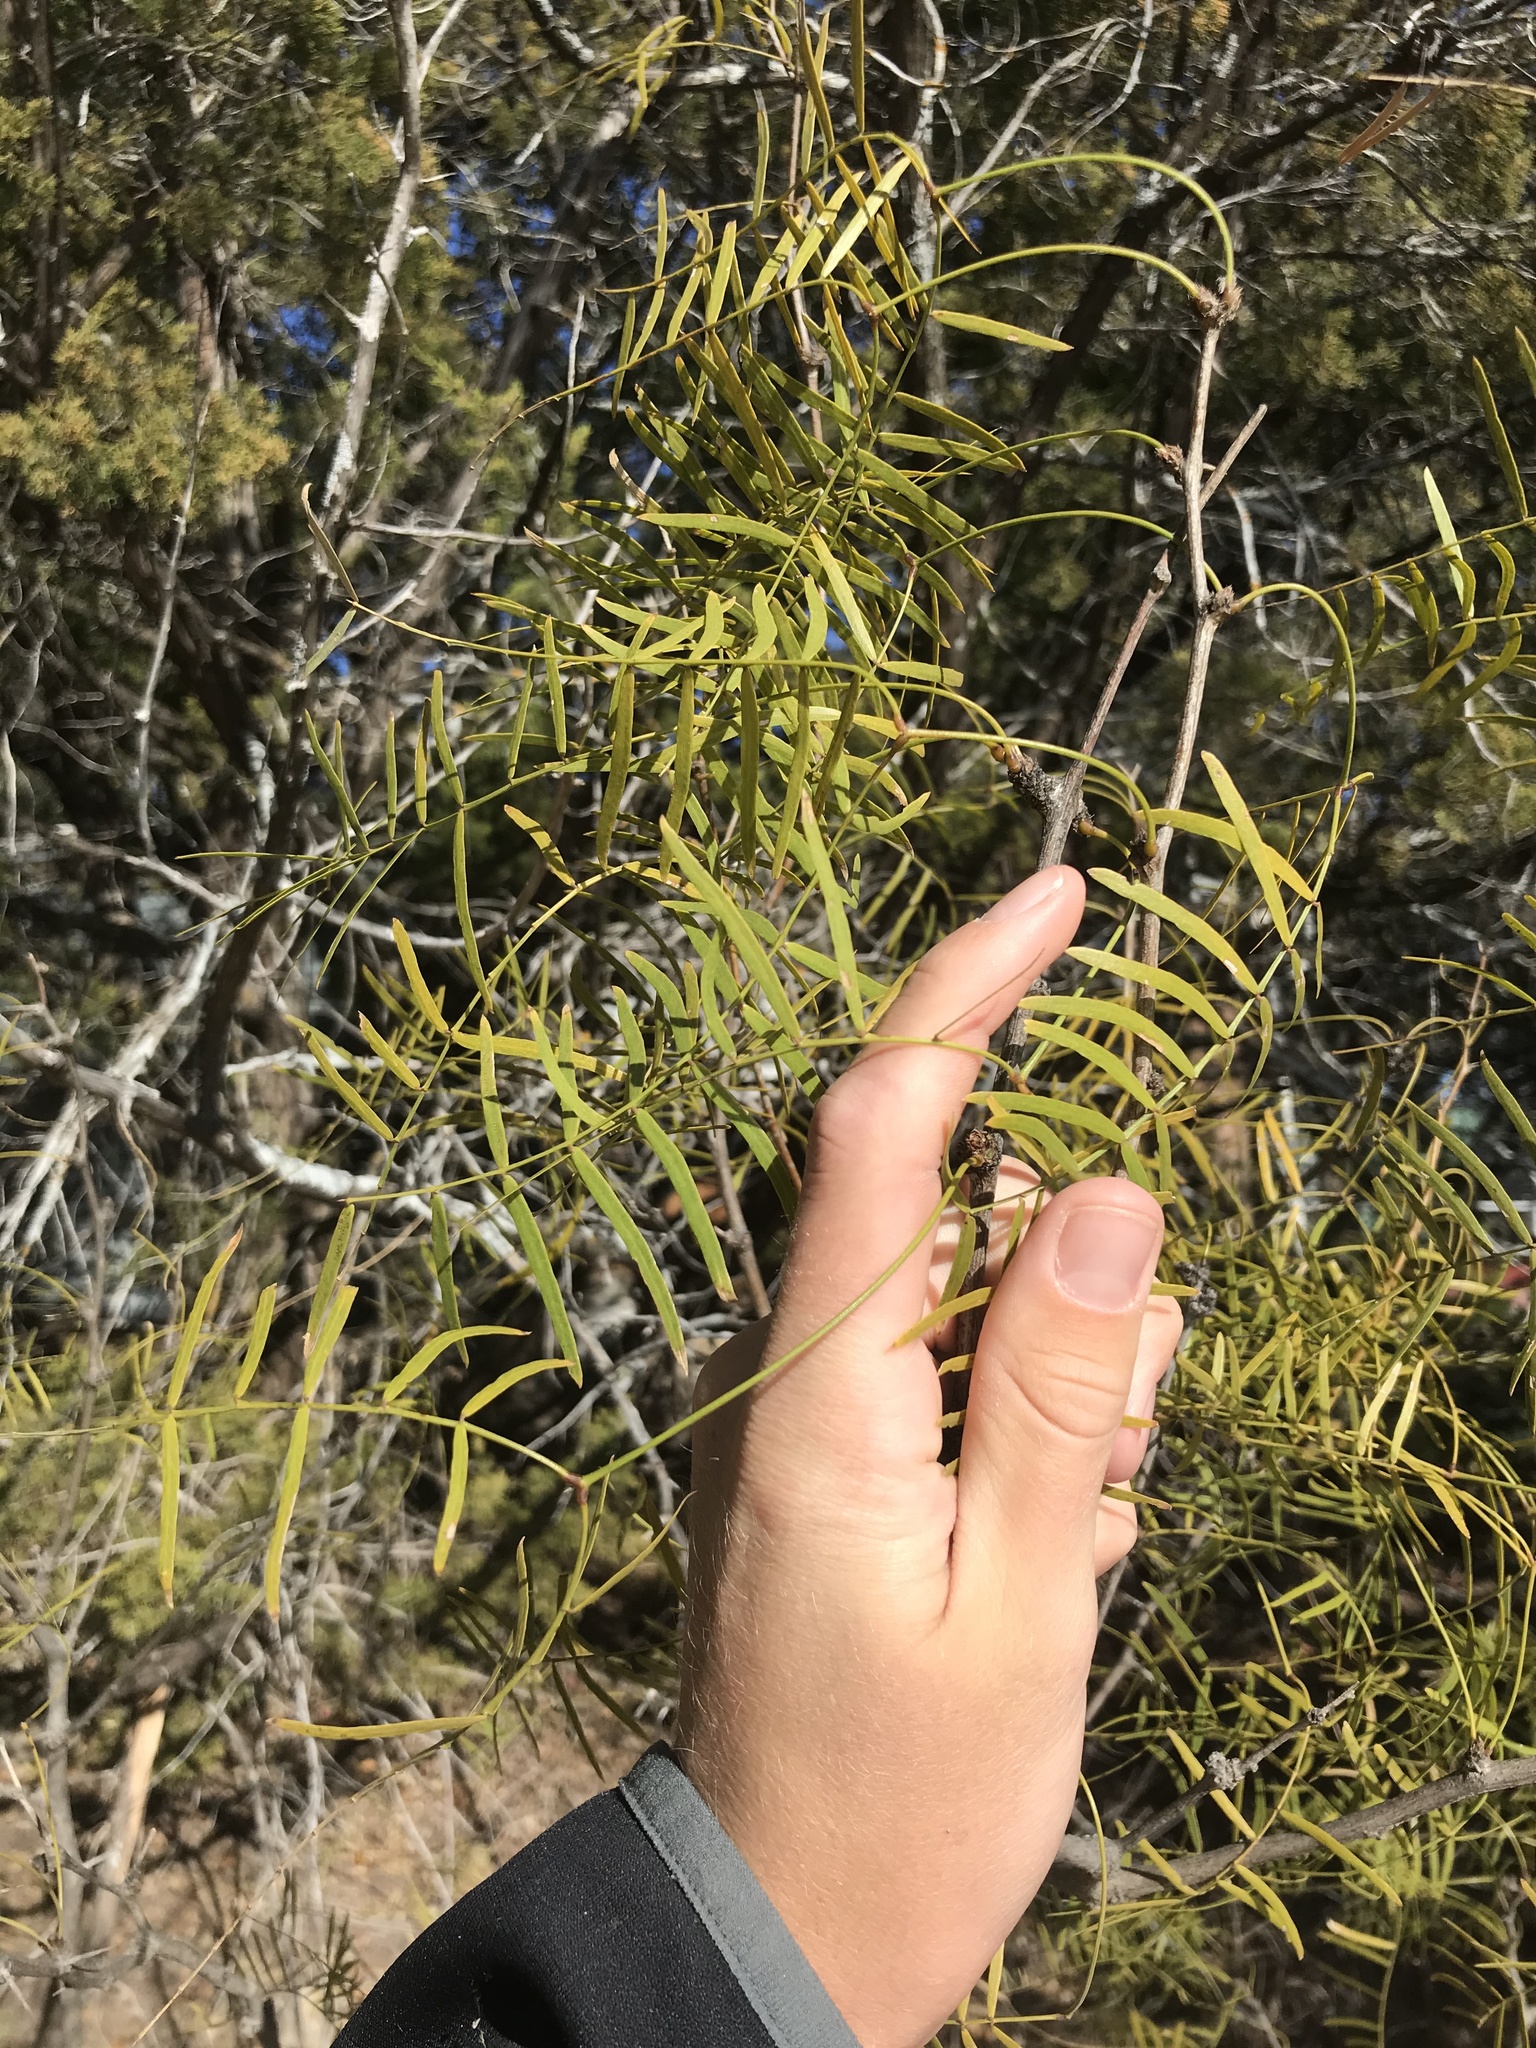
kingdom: Plantae
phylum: Tracheophyta
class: Magnoliopsida
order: Fabales
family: Fabaceae
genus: Prosopis
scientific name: Prosopis glandulosa
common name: Honey mesquite
